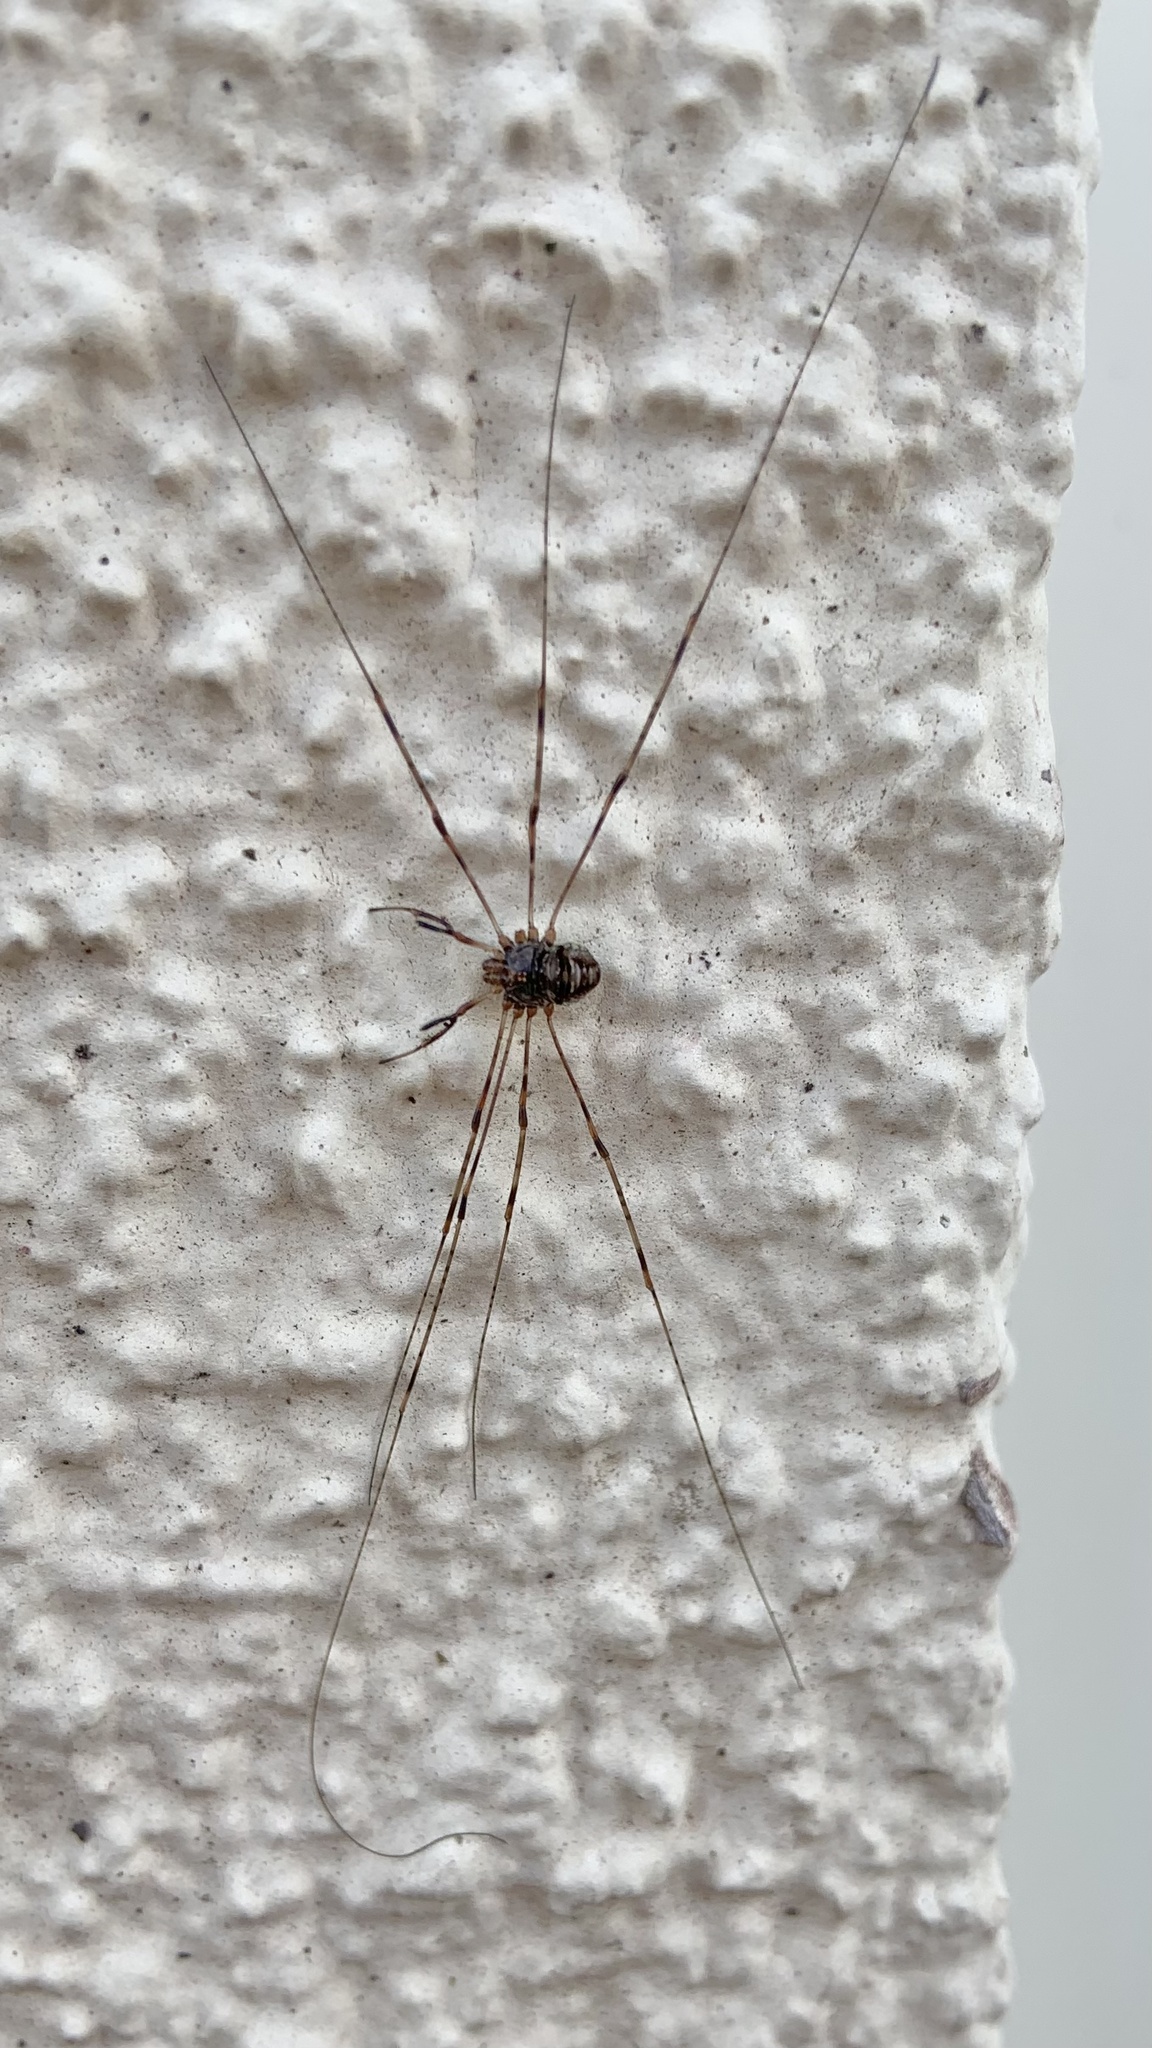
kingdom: Animalia
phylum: Arthropoda
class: Arachnida
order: Opiliones
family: Phalangiidae
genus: Dicranopalpus
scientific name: Dicranopalpus ramosus
